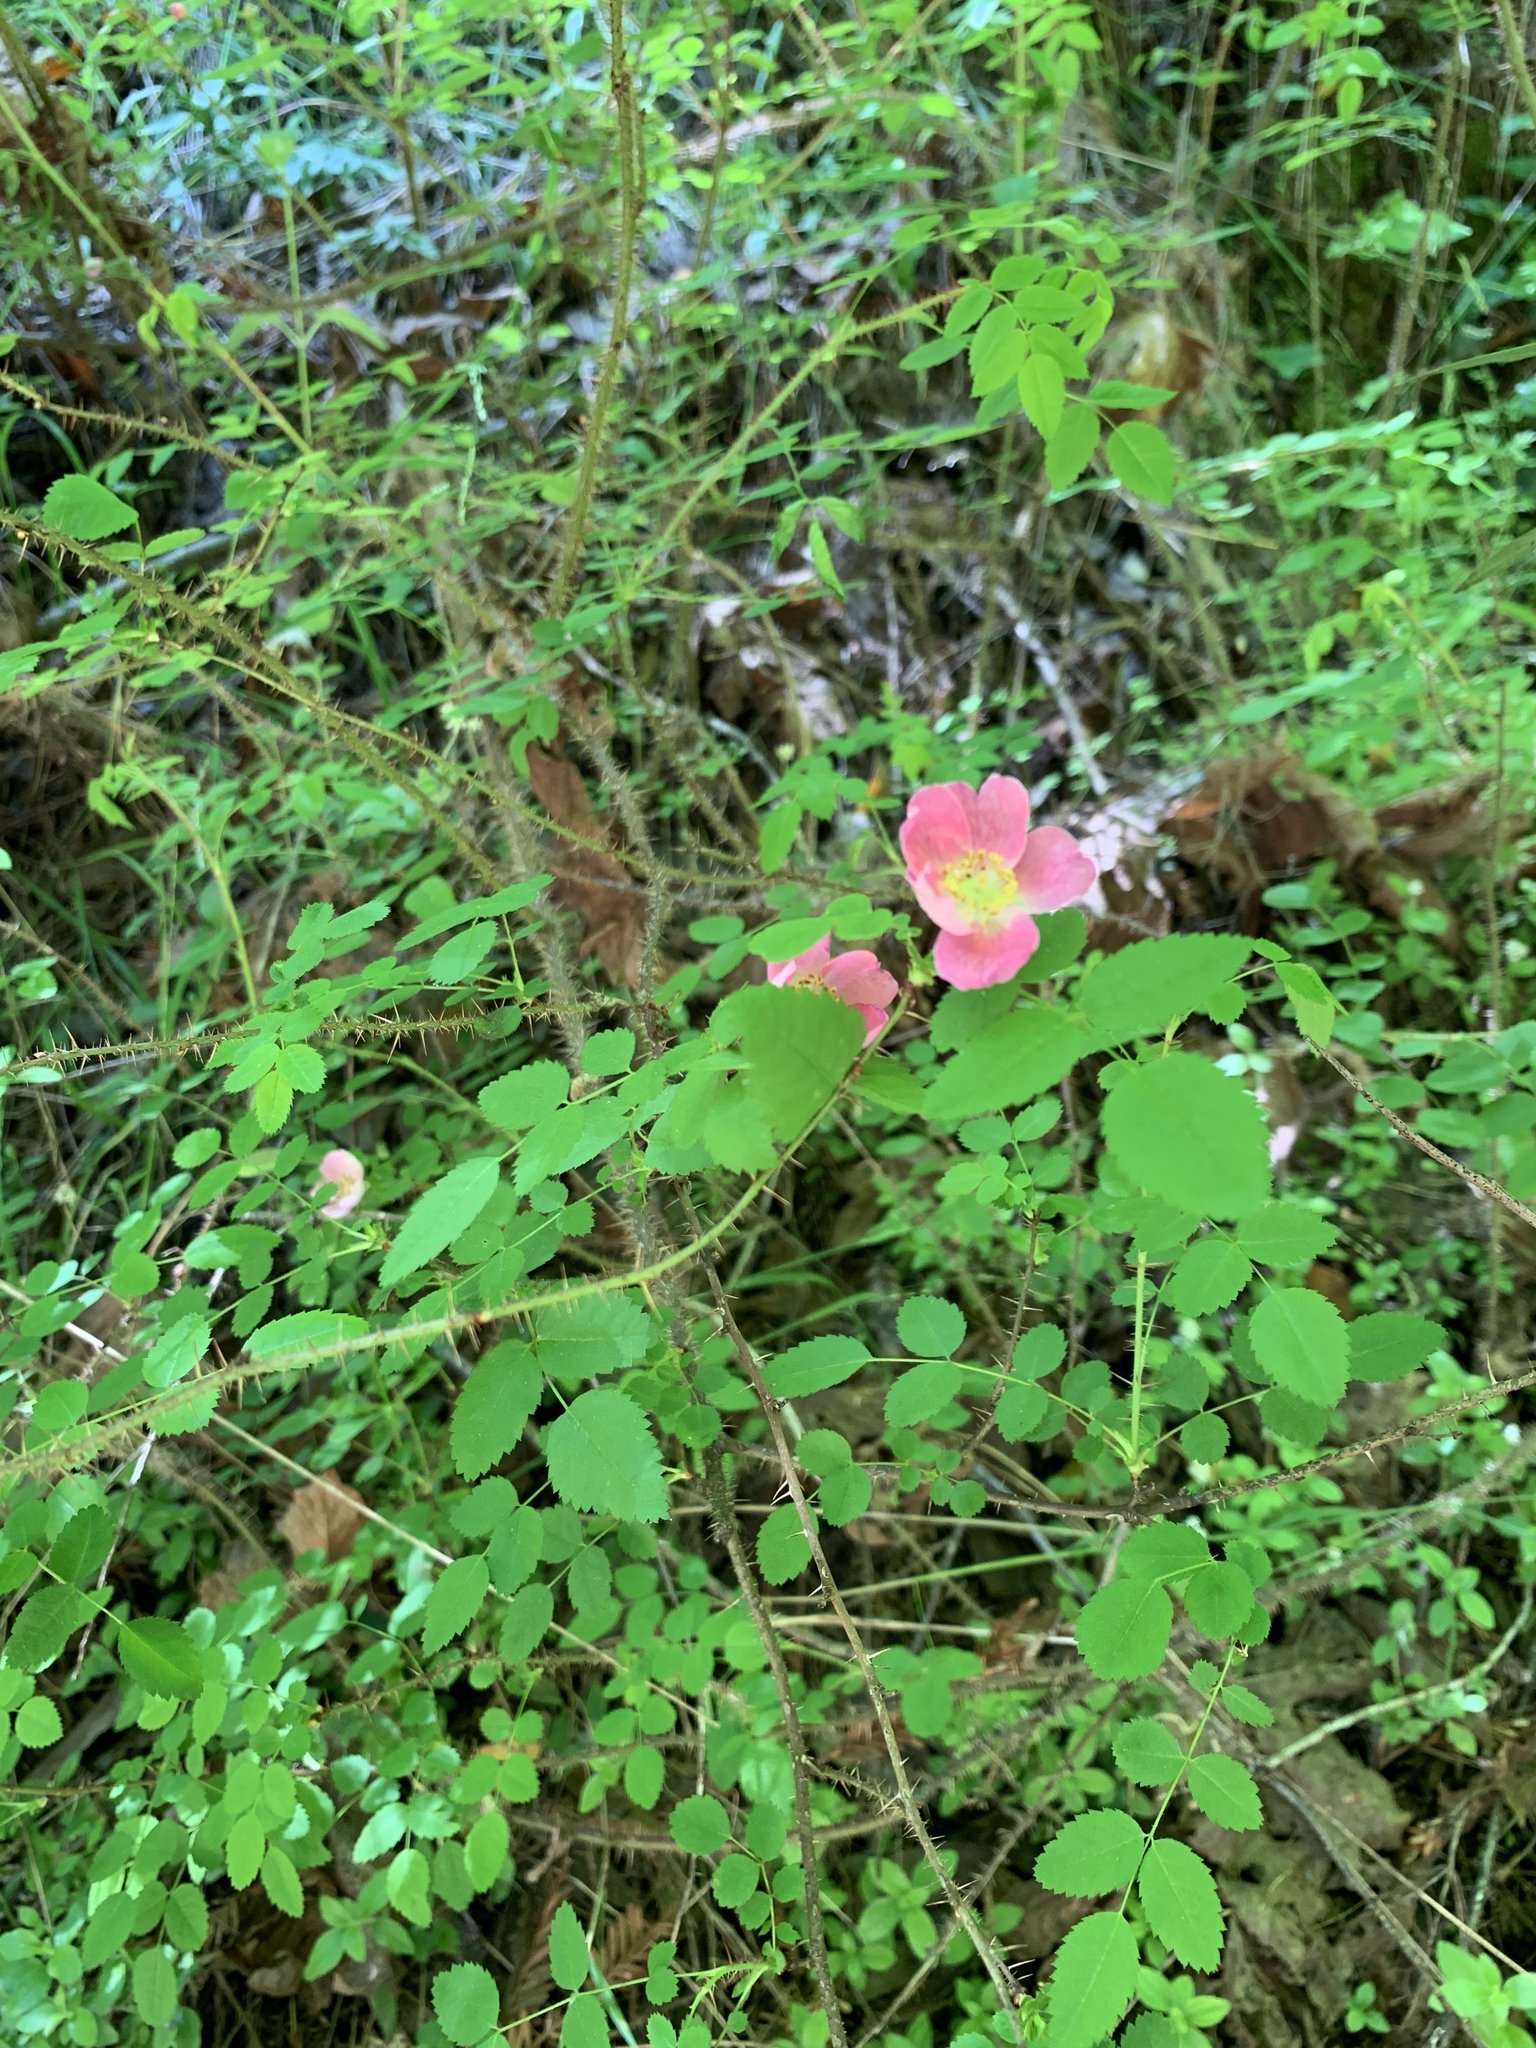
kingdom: Plantae
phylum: Tracheophyta
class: Magnoliopsida
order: Rosales
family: Rosaceae
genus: Rosa
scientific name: Rosa gymnocarpa
